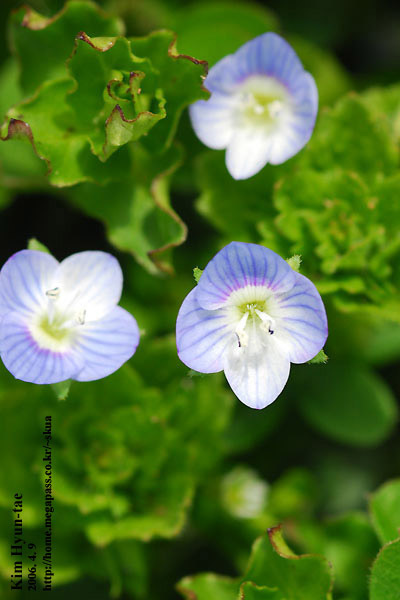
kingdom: Plantae
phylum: Tracheophyta
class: Magnoliopsida
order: Lamiales
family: Plantaginaceae
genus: Veronica
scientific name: Veronica persica
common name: Common field-speedwell
